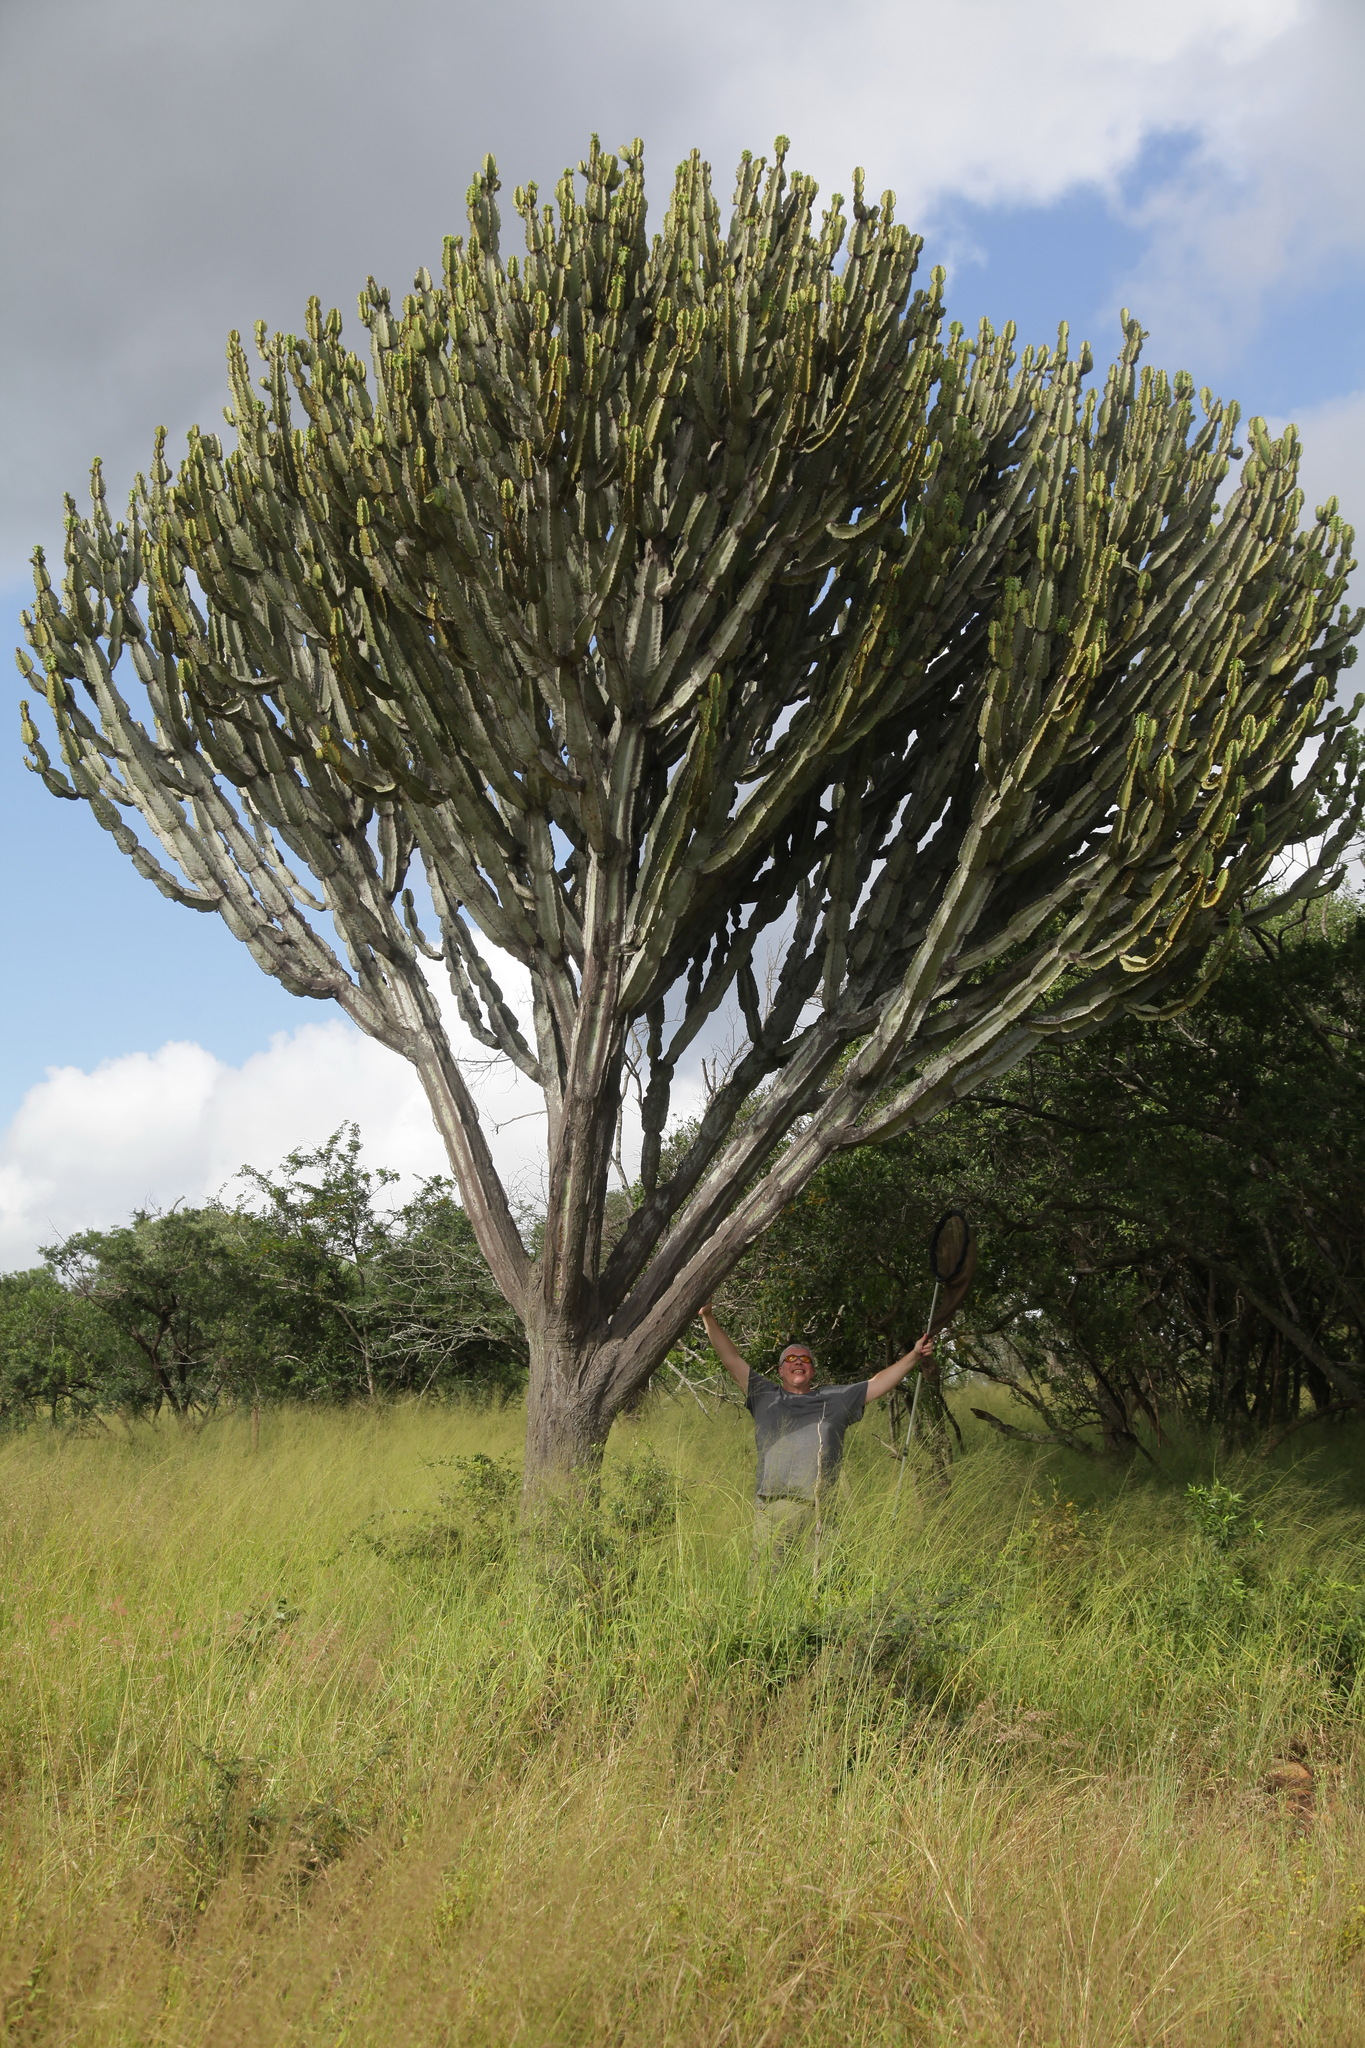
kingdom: Plantae
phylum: Tracheophyta
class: Magnoliopsida
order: Malpighiales
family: Euphorbiaceae
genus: Euphorbia
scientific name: Euphorbia ingens
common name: Cactus spurge
